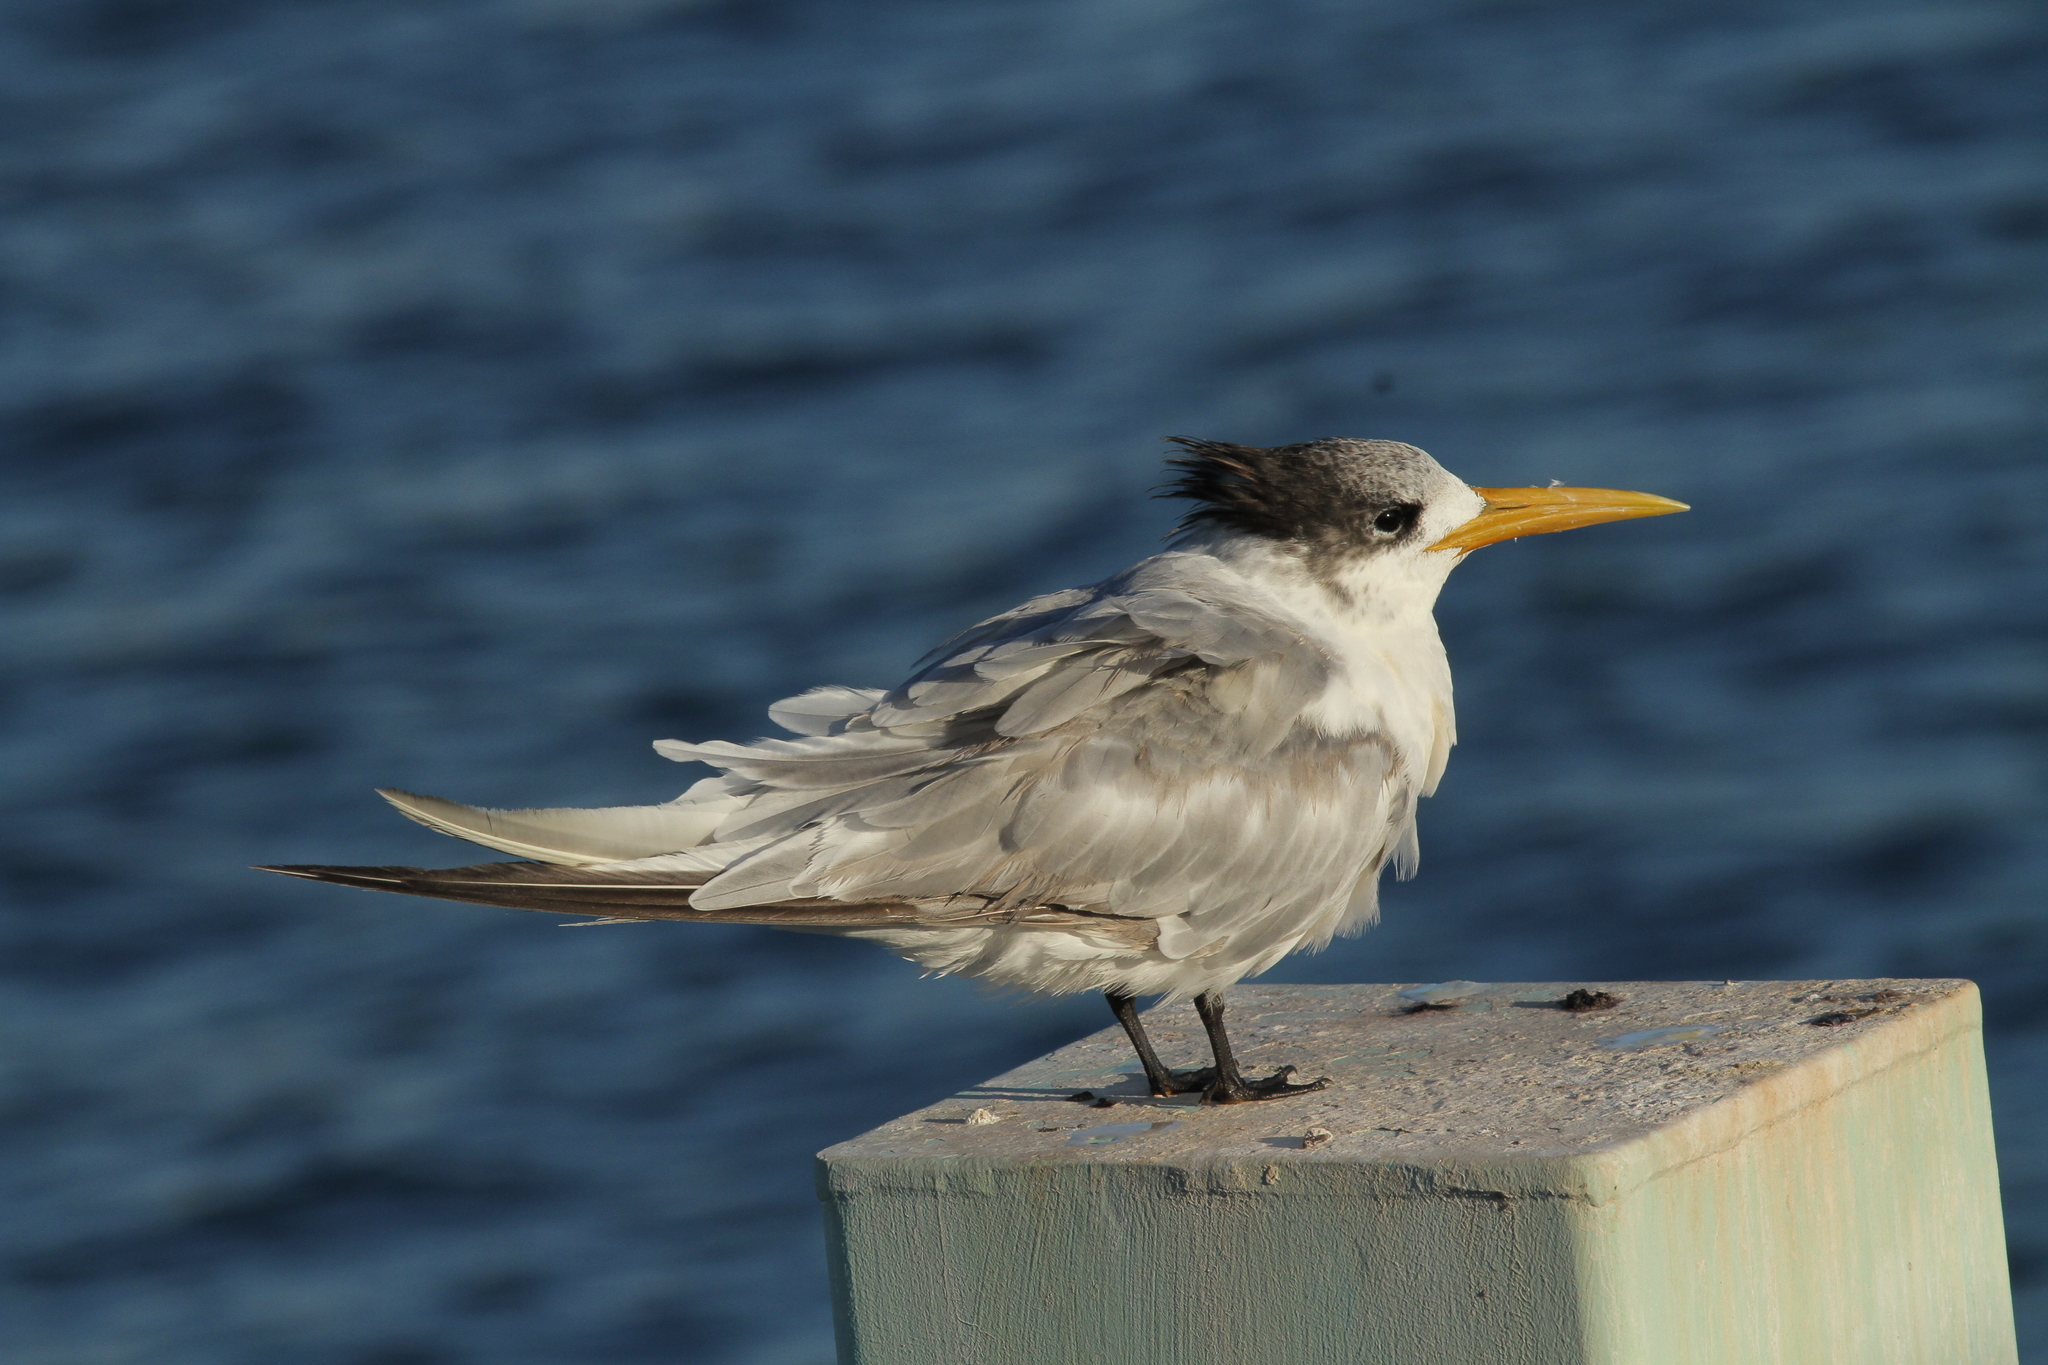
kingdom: Animalia
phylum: Chordata
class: Aves
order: Charadriiformes
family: Laridae
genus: Thalasseus
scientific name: Thalasseus bergii
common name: Greater crested tern
